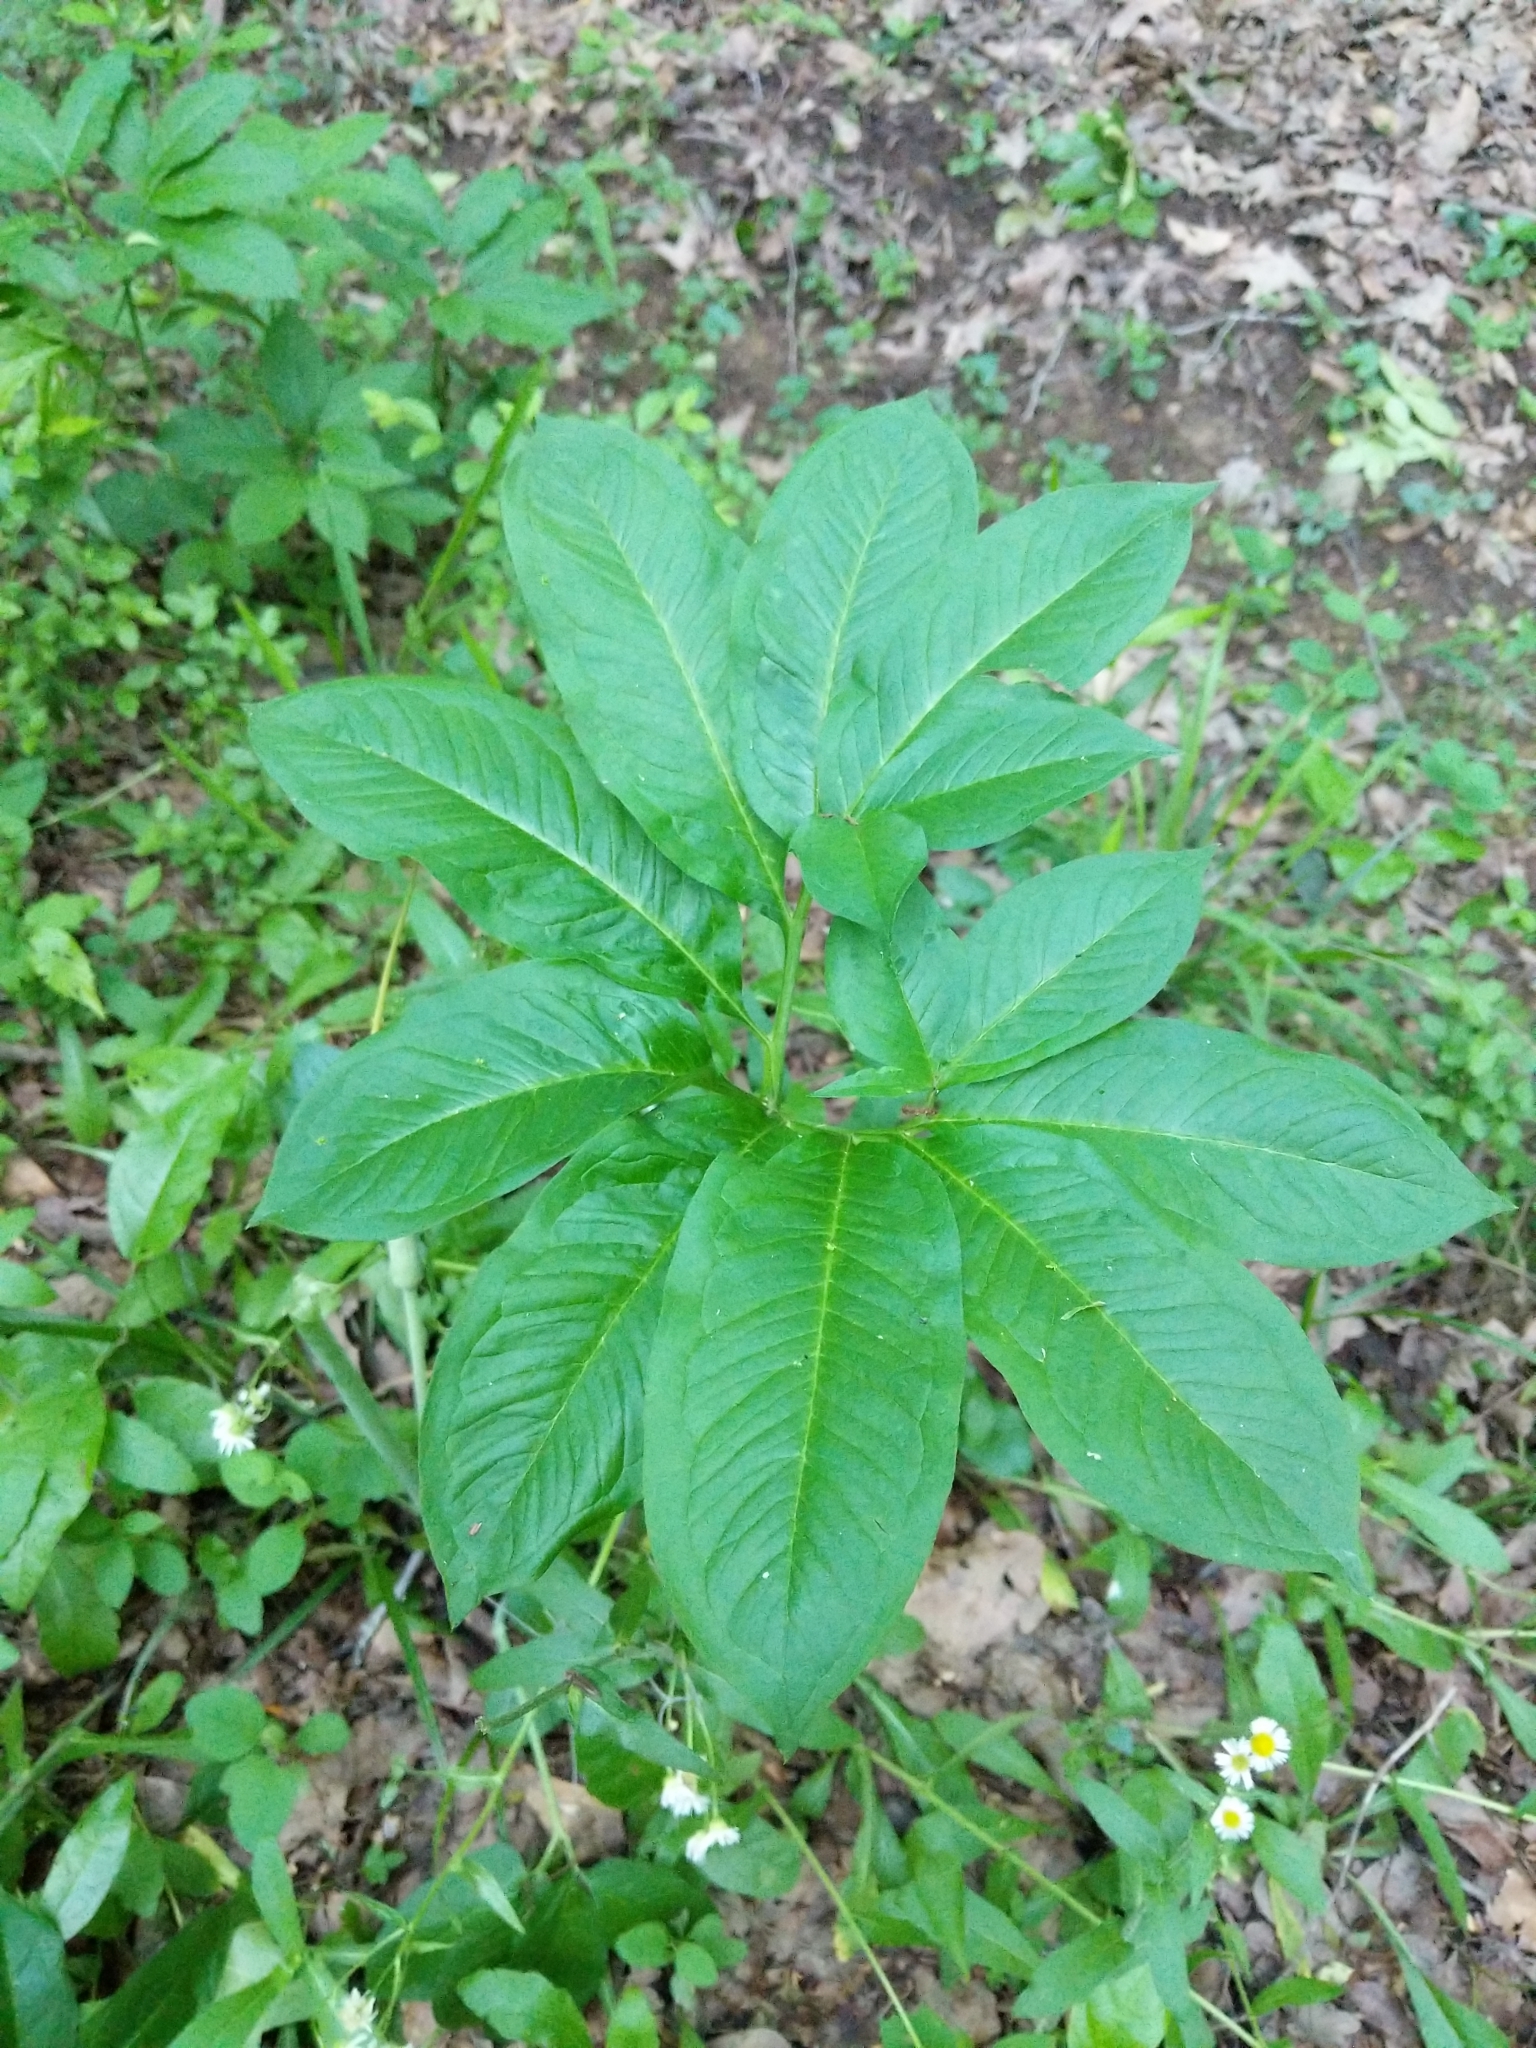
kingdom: Plantae
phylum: Tracheophyta
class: Liliopsida
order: Alismatales
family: Araceae
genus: Arisaema
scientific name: Arisaema dracontium
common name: Dragon-arum
